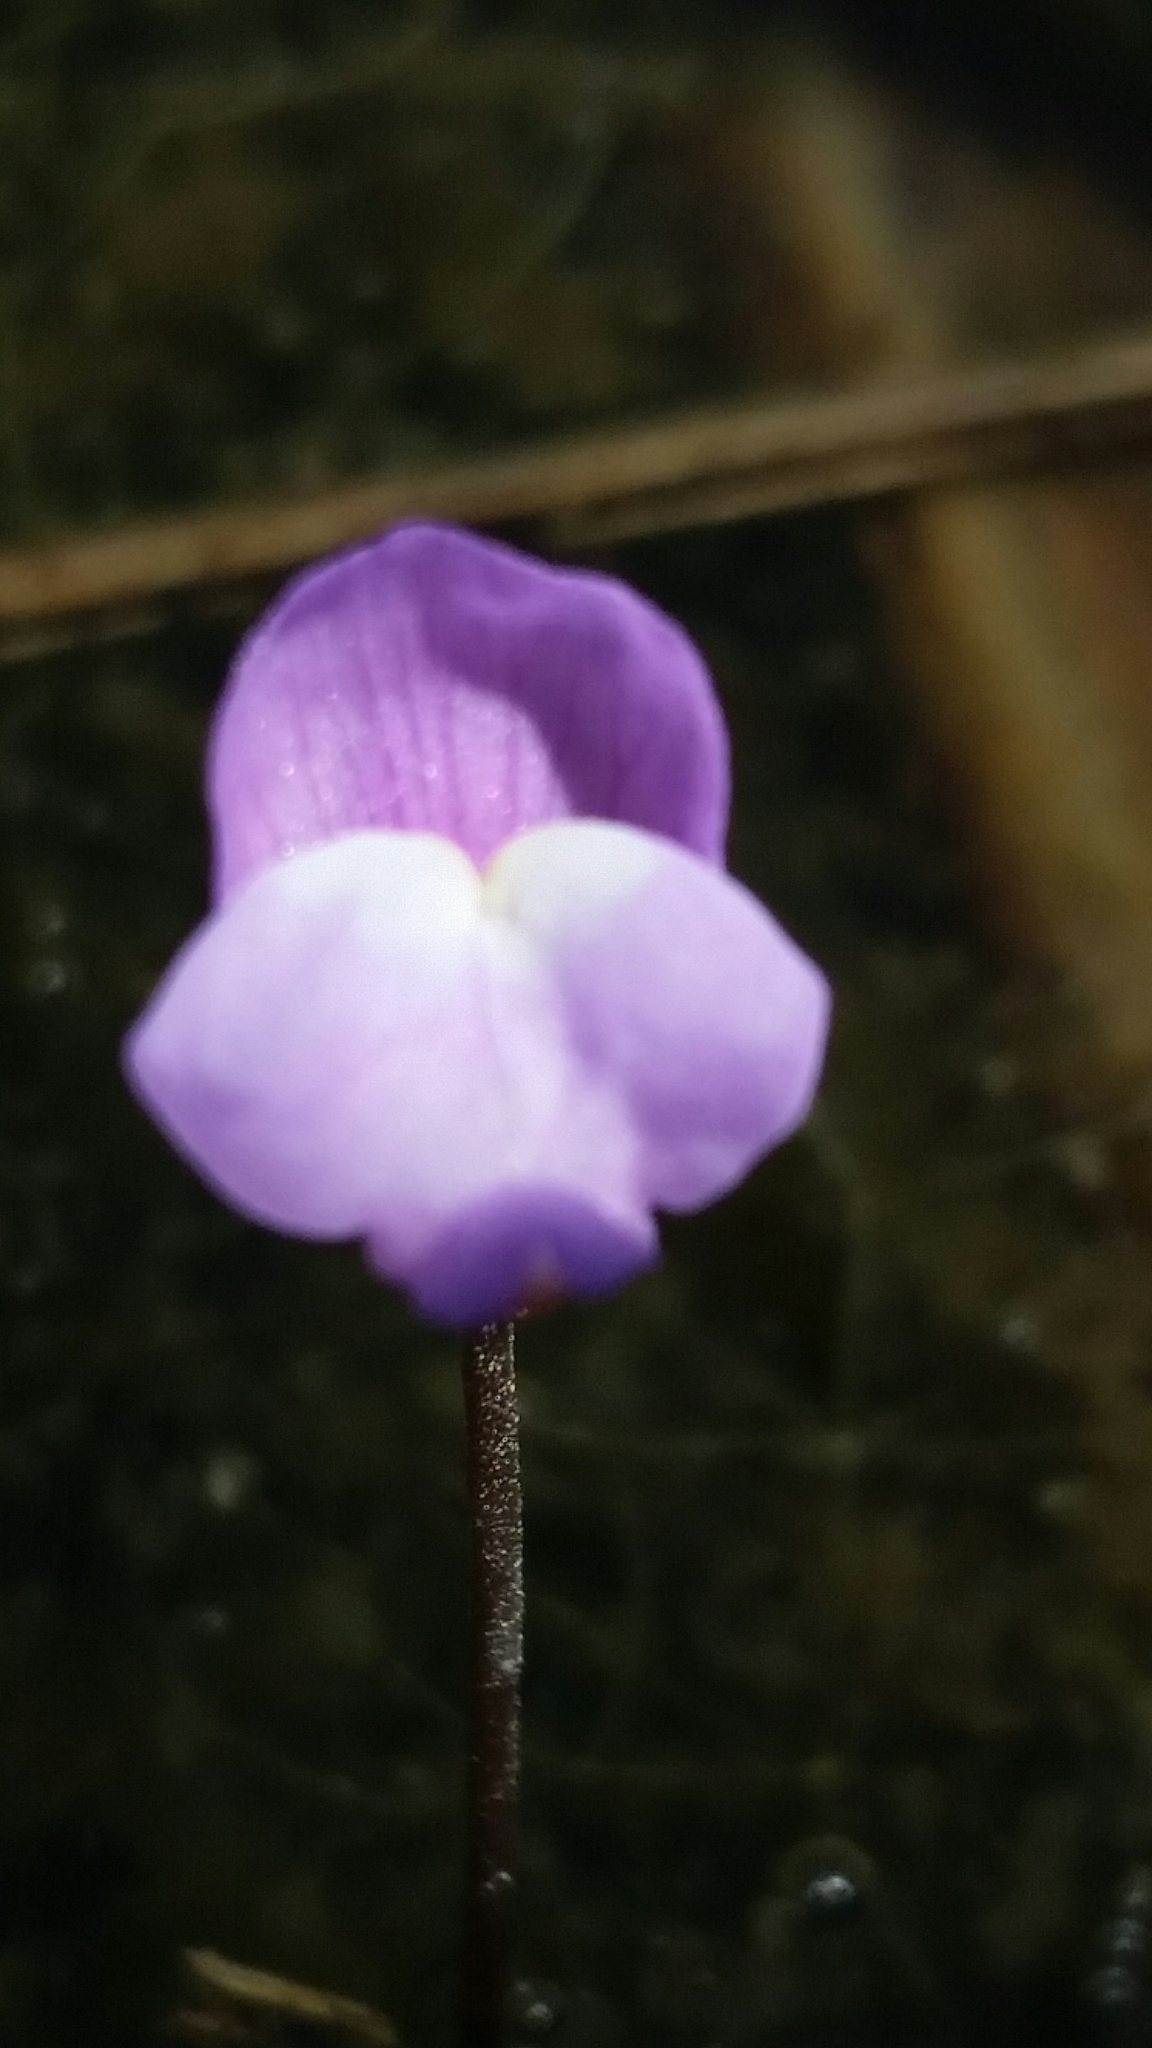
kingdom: Plantae
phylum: Tracheophyta
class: Magnoliopsida
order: Lamiales
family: Lentibulariaceae
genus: Utricularia
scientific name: Utricularia purpurea
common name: Eastern purple bladderwort
